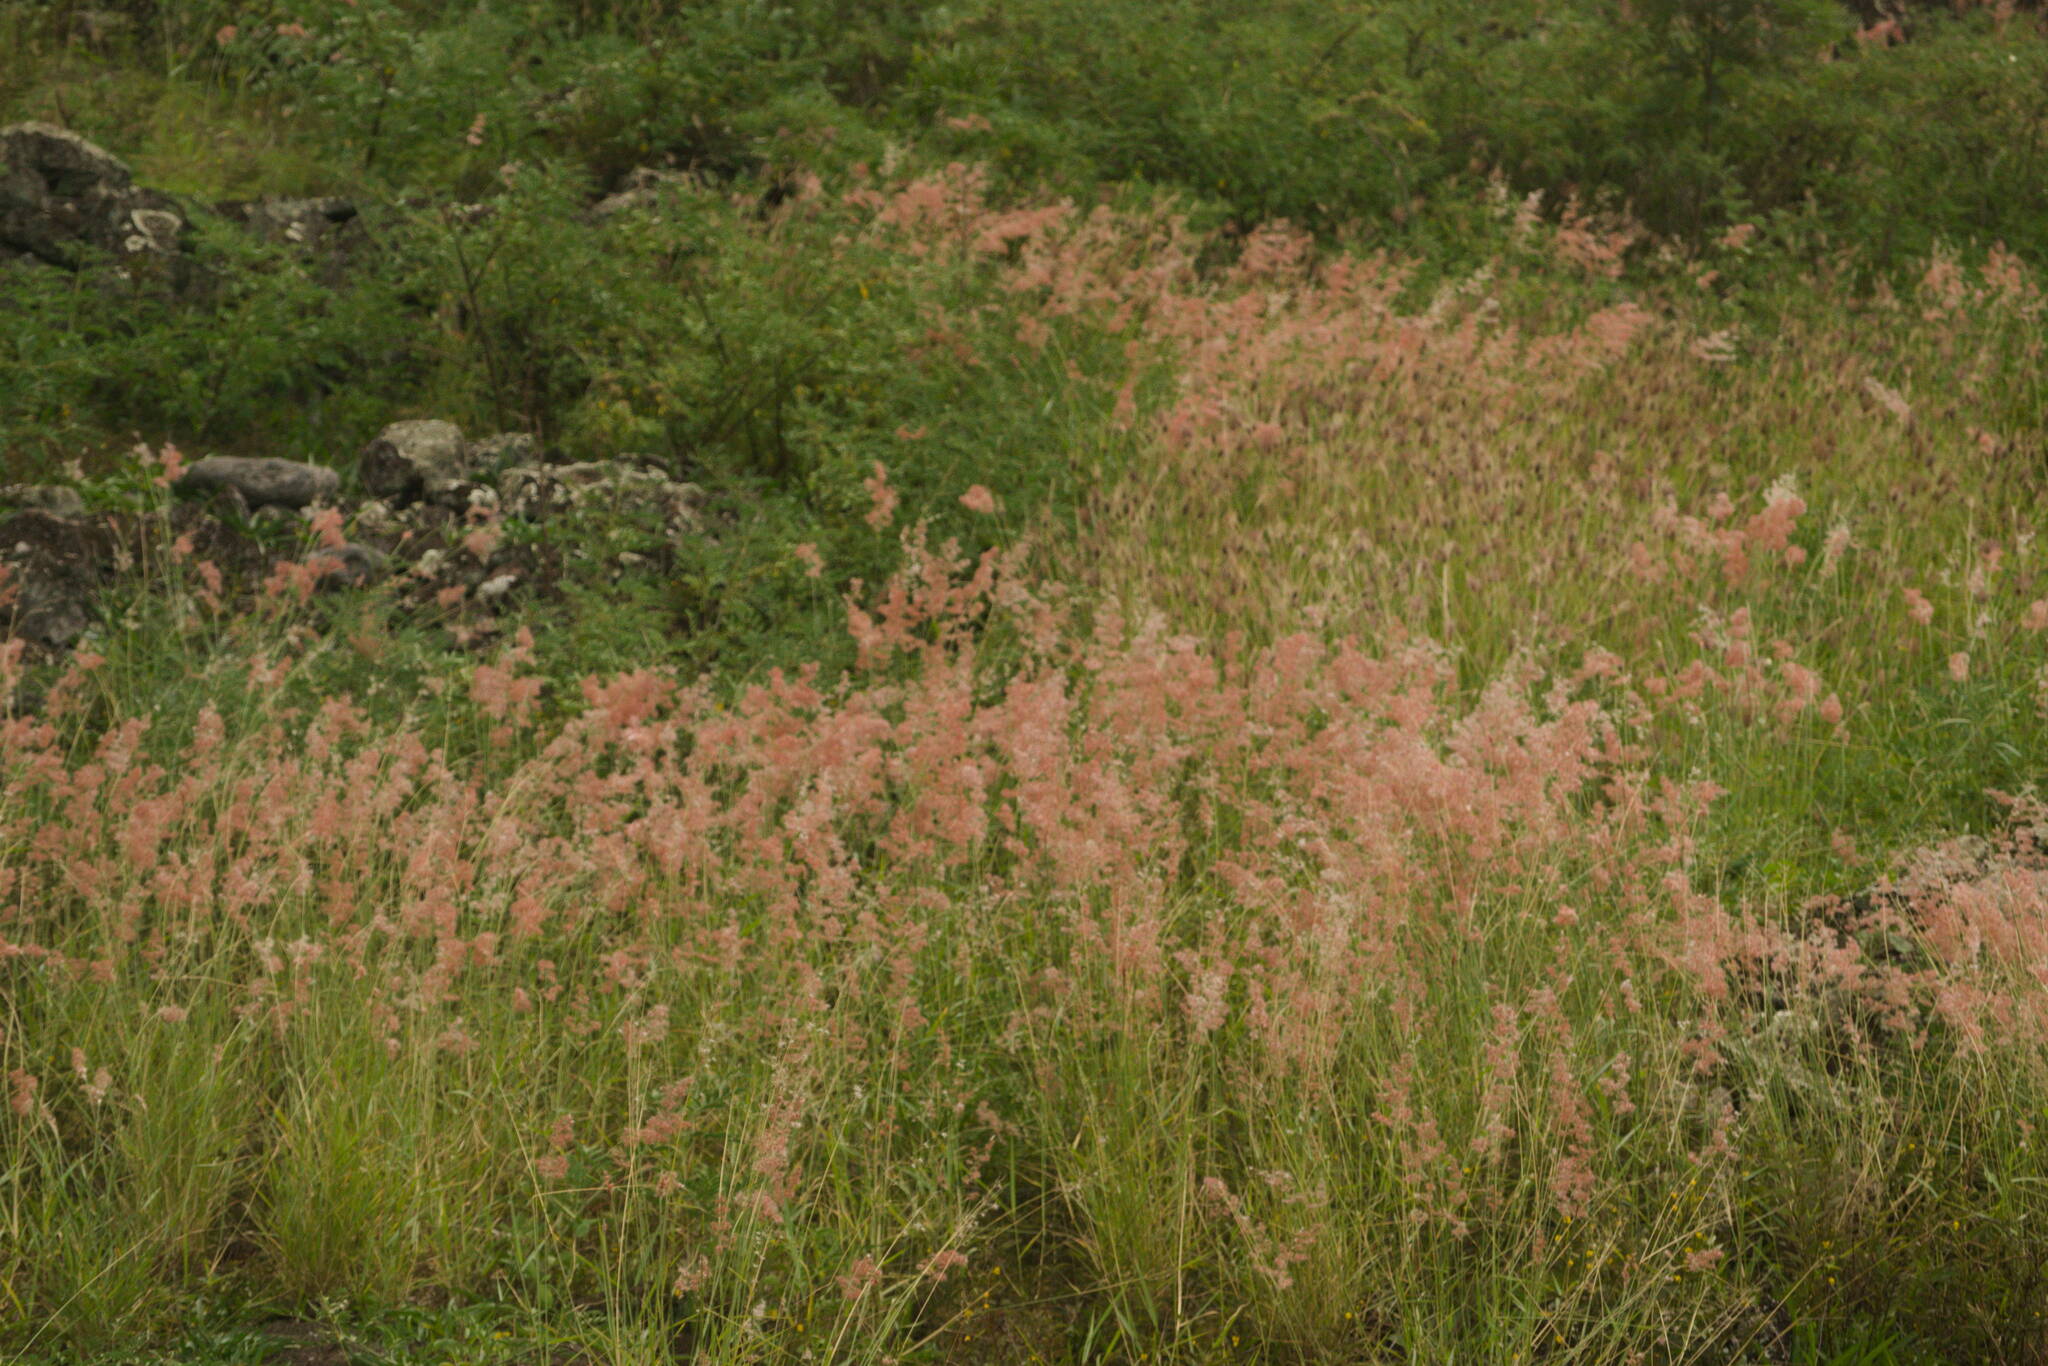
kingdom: Plantae
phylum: Tracheophyta
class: Liliopsida
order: Poales
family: Poaceae
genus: Melinis
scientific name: Melinis repens
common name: Rose natal grass
